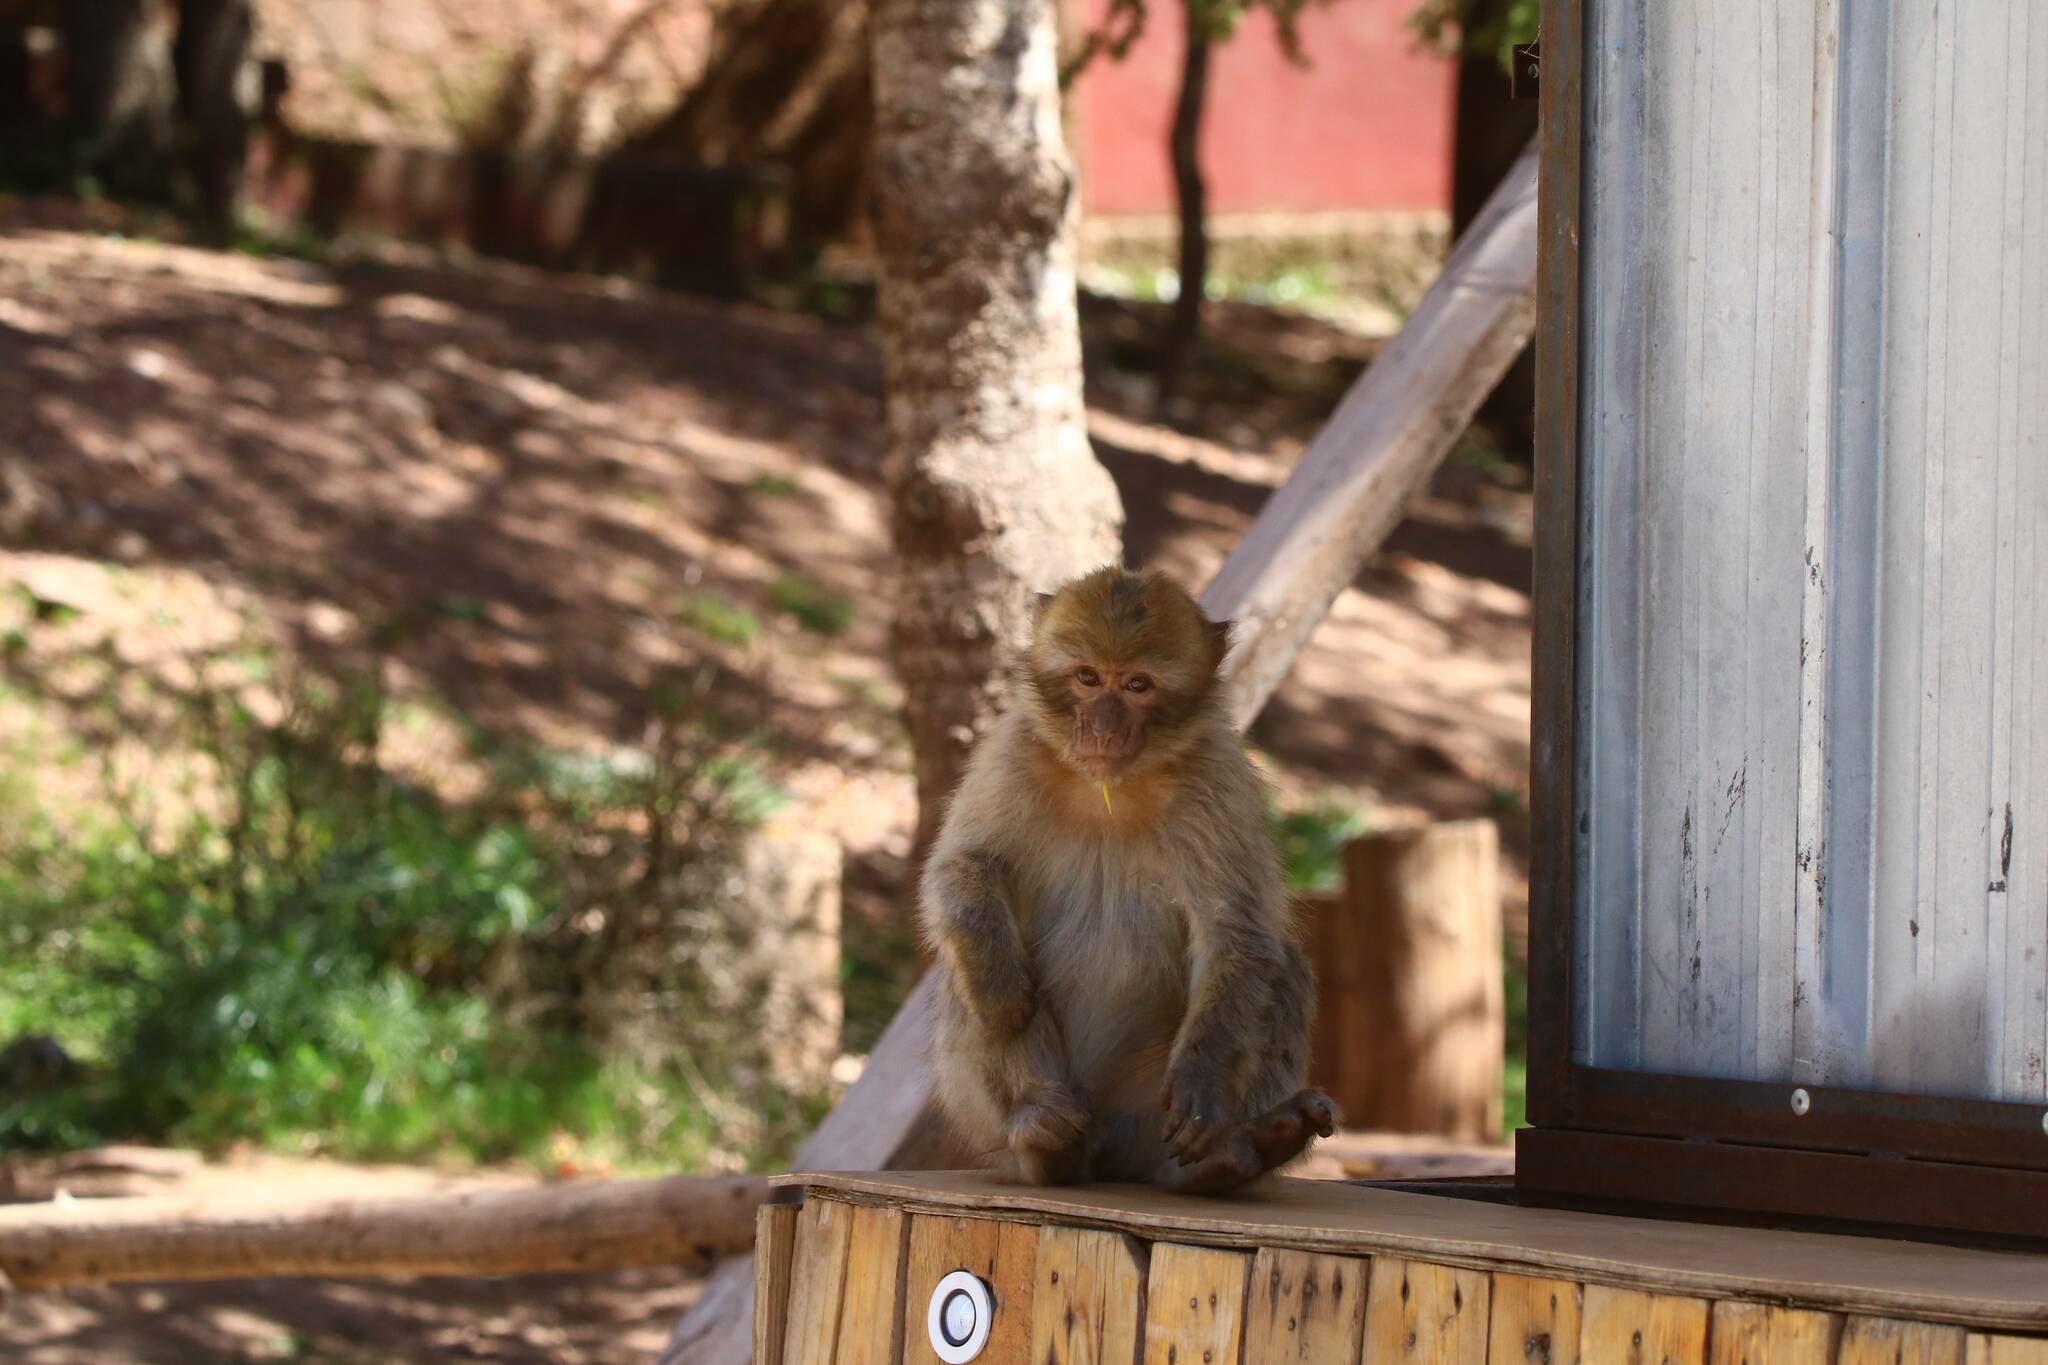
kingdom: Animalia
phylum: Chordata
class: Mammalia
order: Primates
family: Cercopithecidae
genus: Macaca
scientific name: Macaca sylvanus
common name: Barbary macaque
